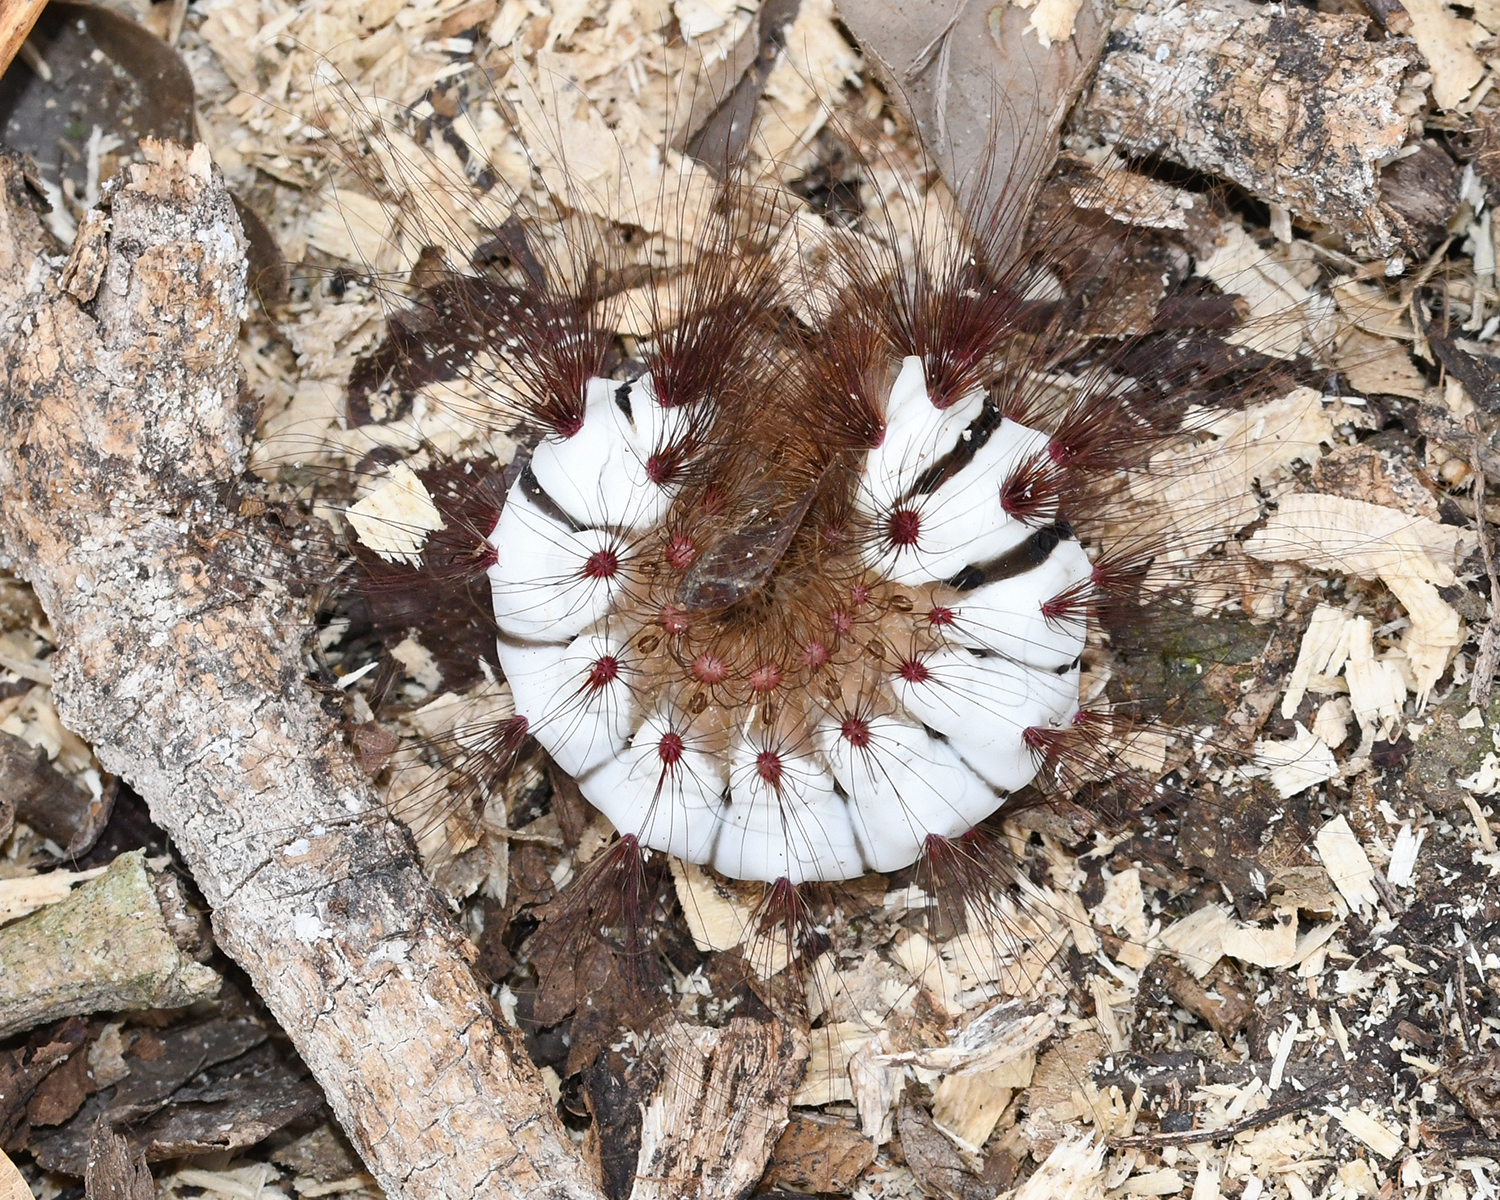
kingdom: Animalia
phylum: Arthropoda
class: Insecta
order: Lepidoptera
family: Megalopygidae
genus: Megalopyge
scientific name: Megalopyge lanata
